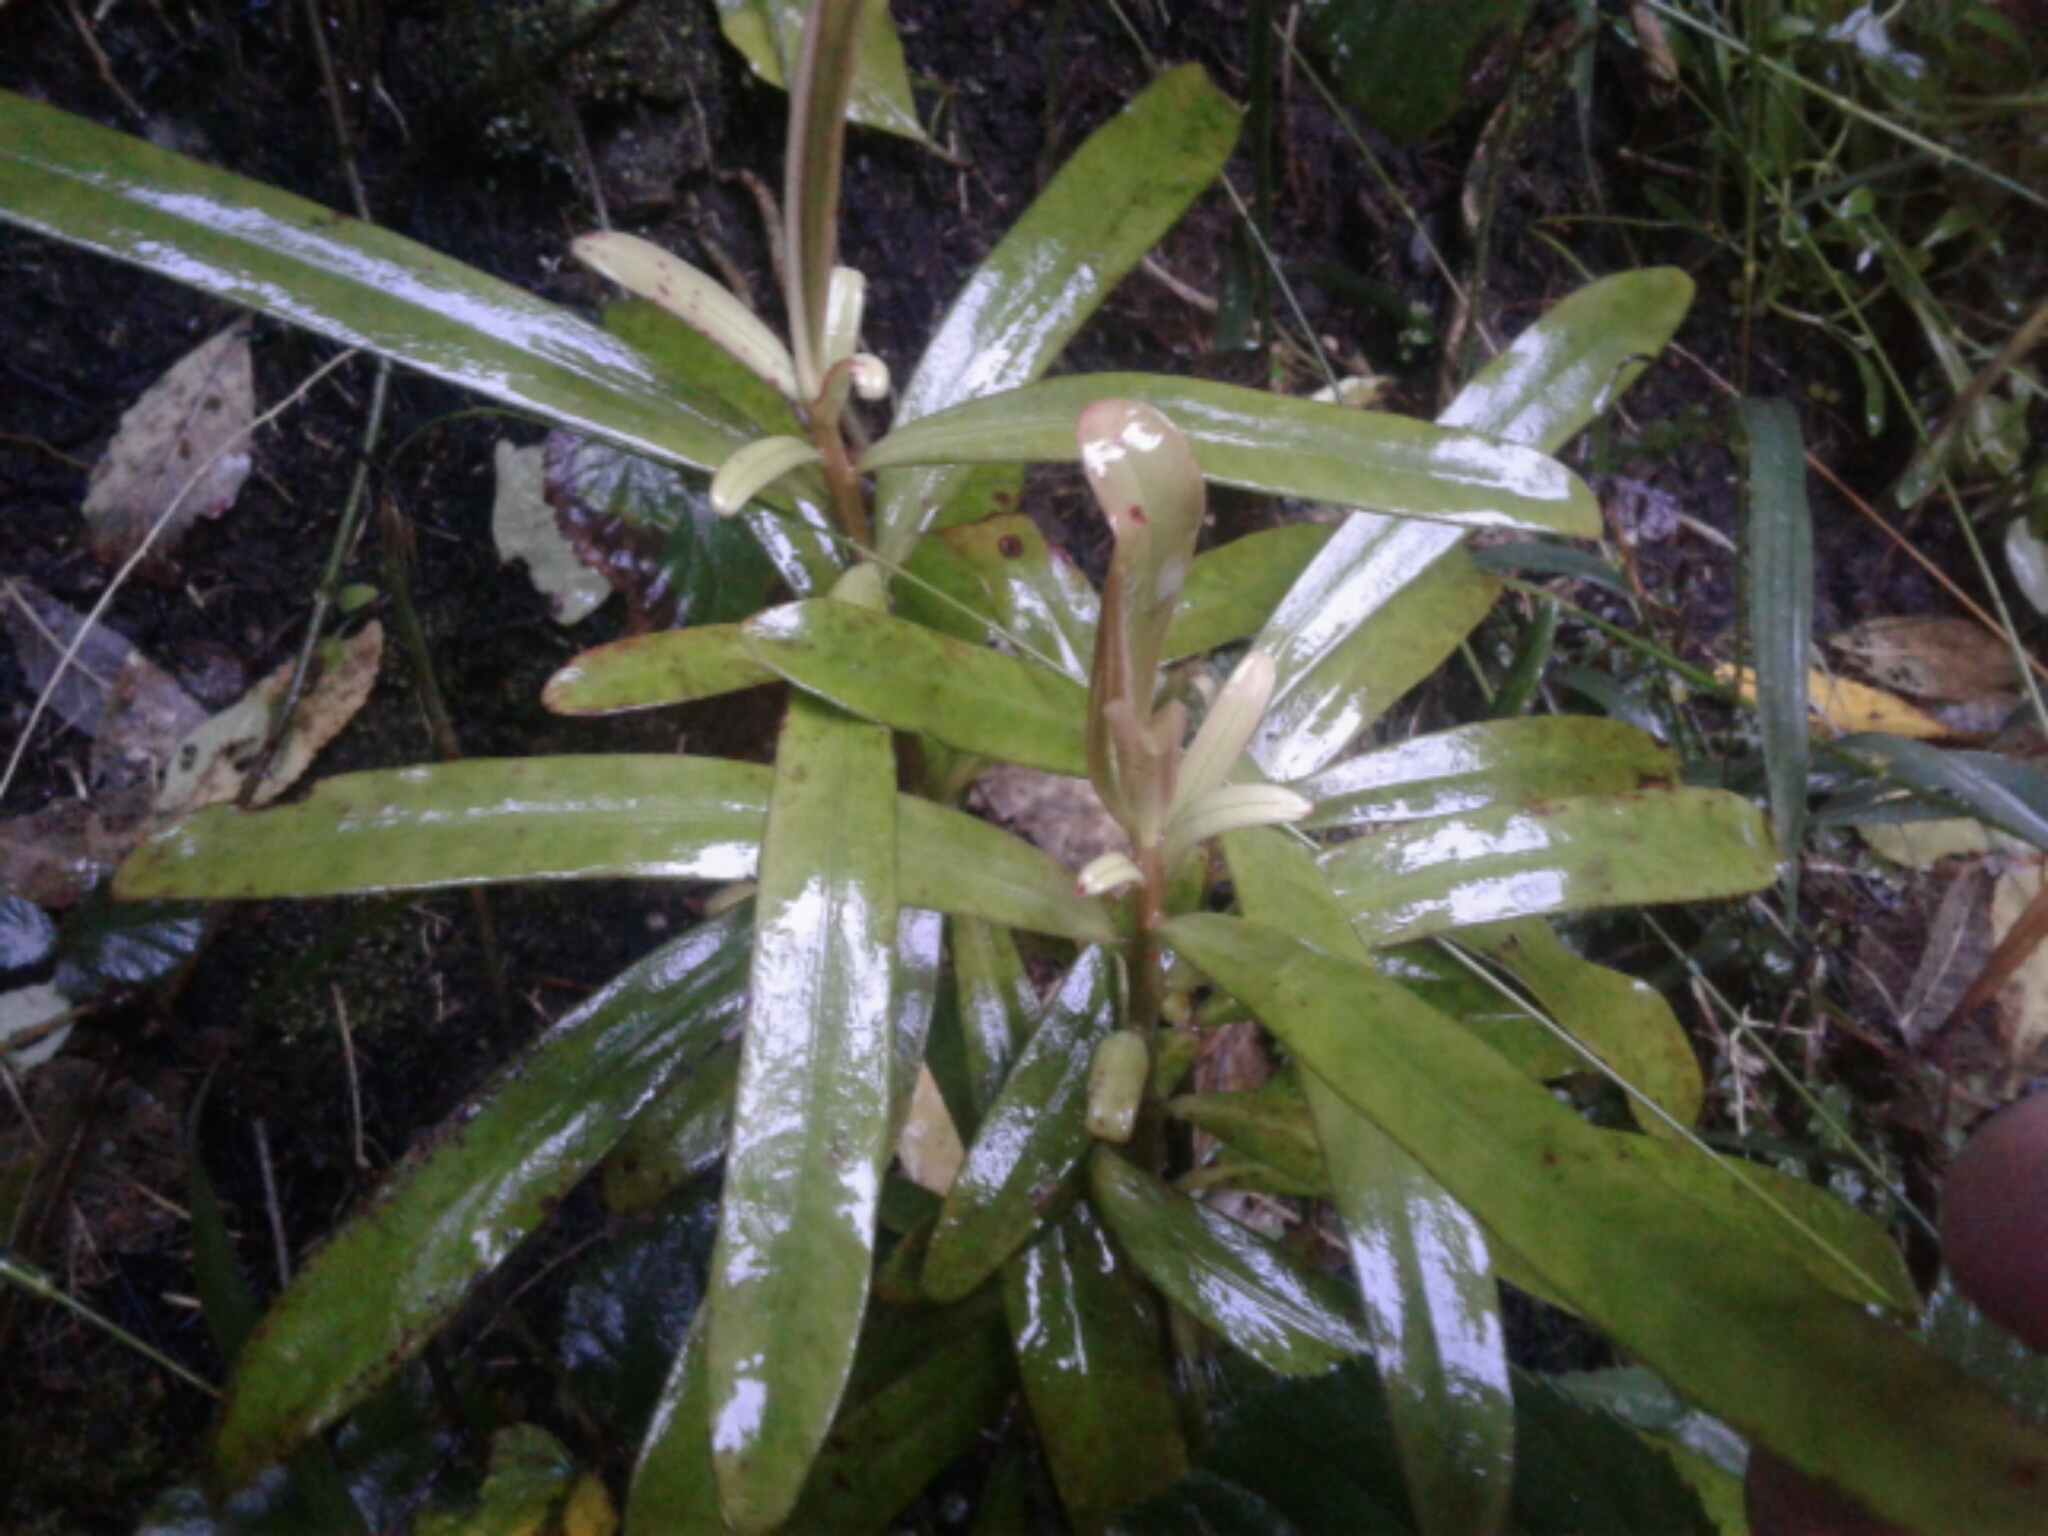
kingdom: Plantae
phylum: Tracheophyta
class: Magnoliopsida
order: Ericales
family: Primulaceae
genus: Myrsine
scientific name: Myrsine salicina
